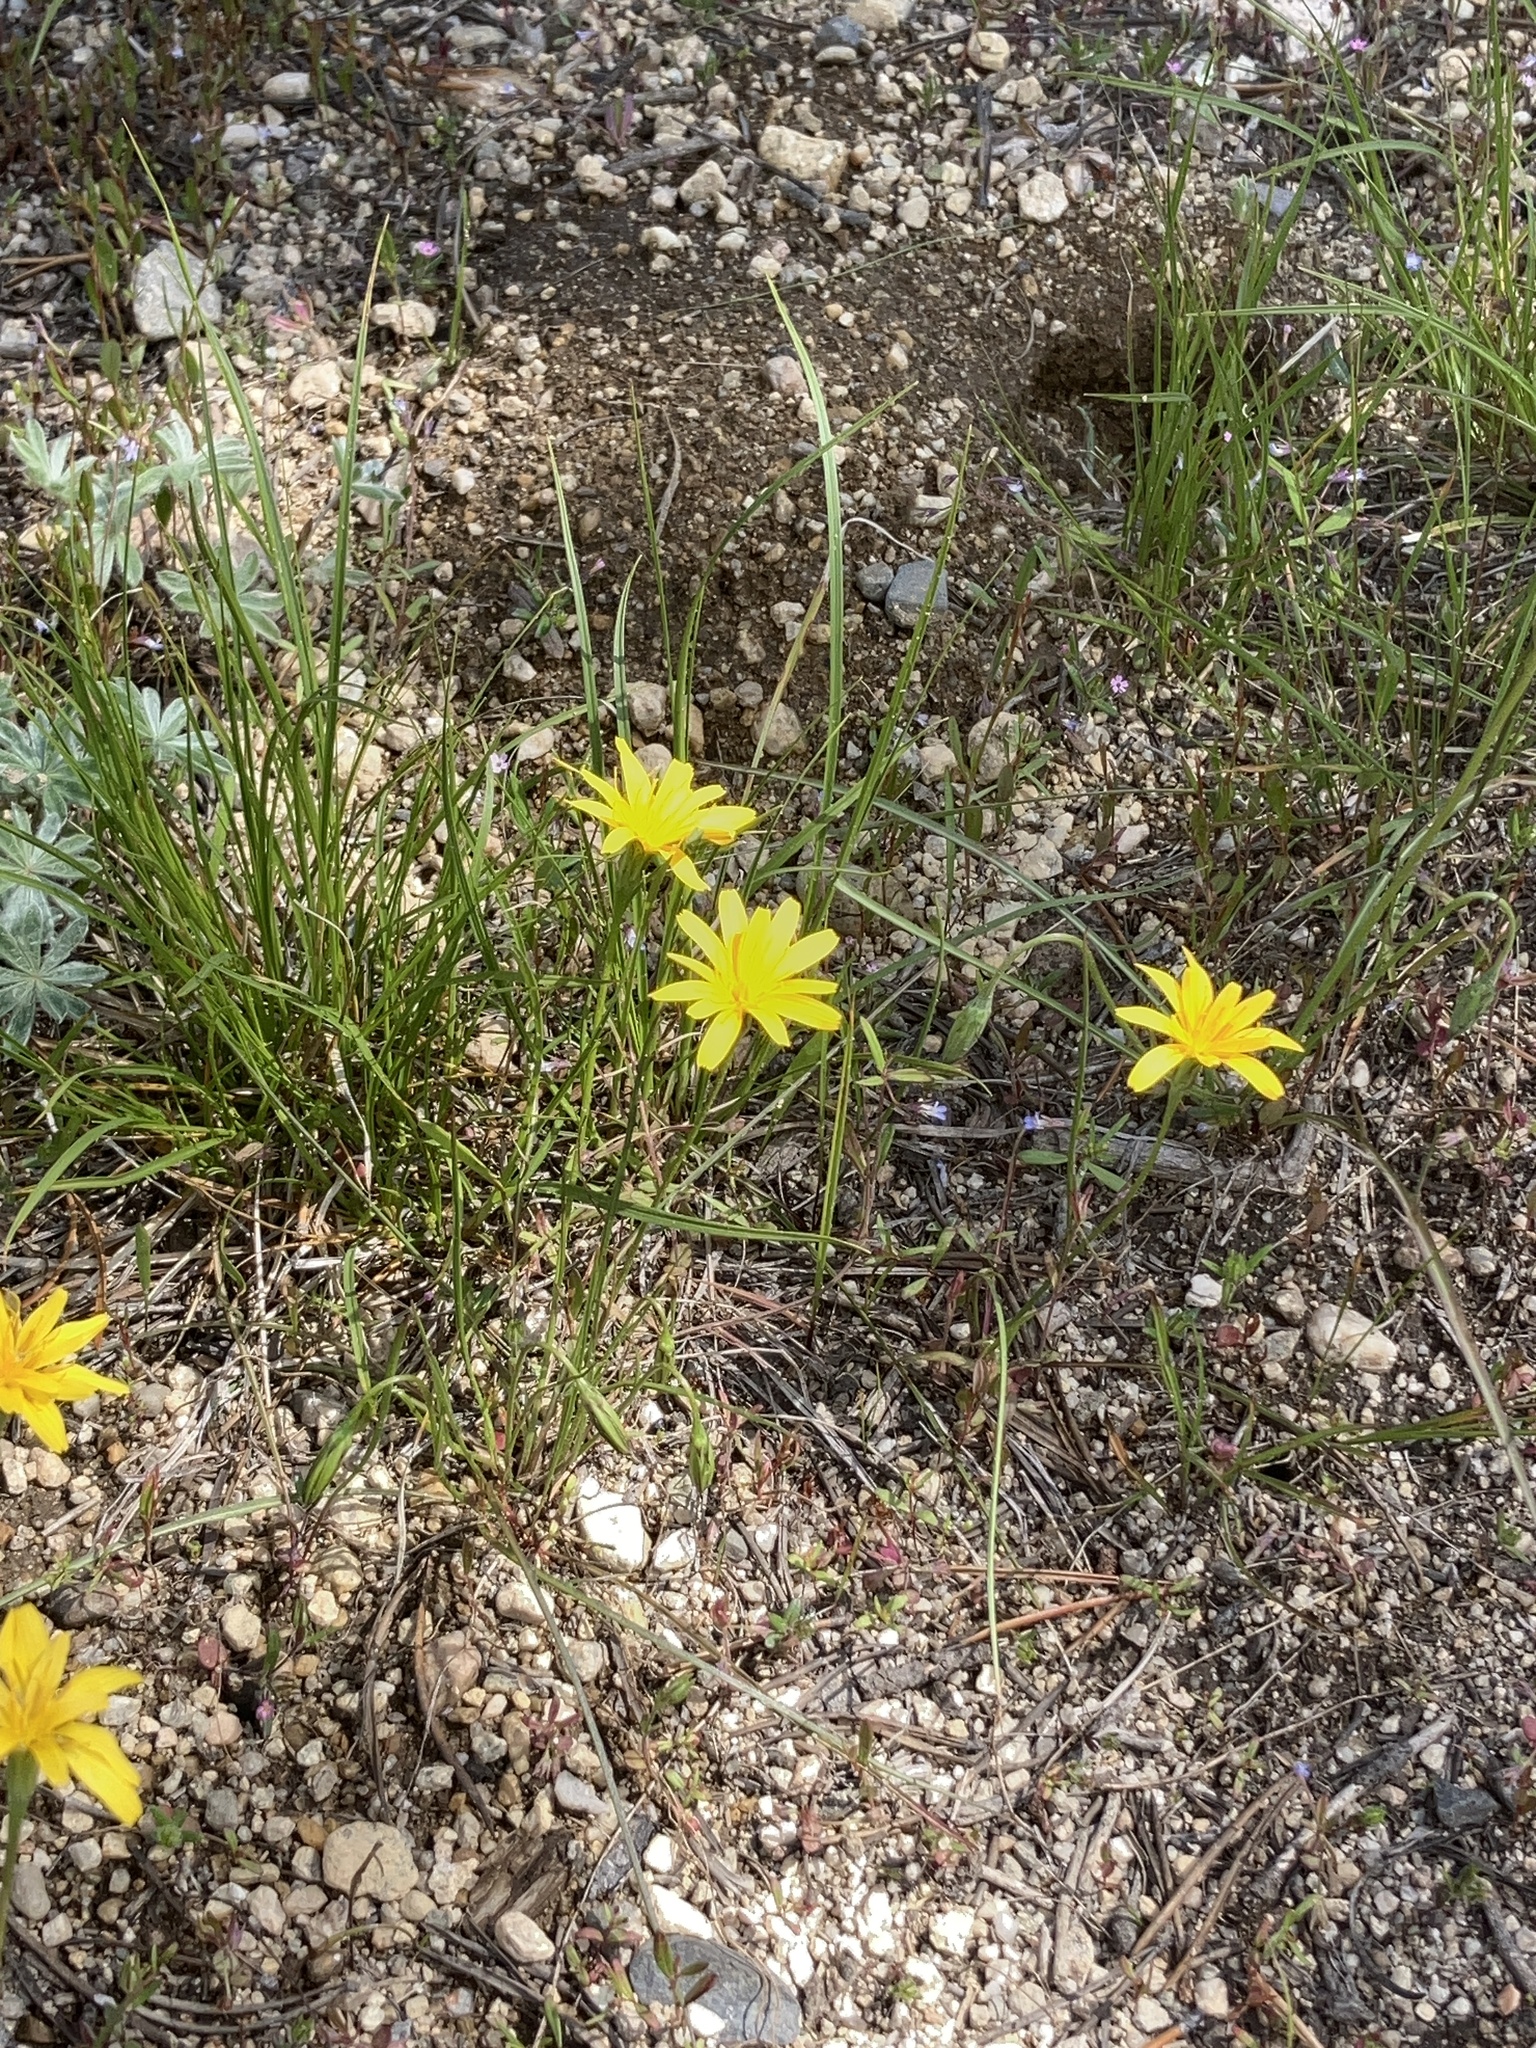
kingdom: Plantae
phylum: Tracheophyta
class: Magnoliopsida
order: Asterales
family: Asteraceae
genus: Nestotus
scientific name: Nestotus lanuginosus
